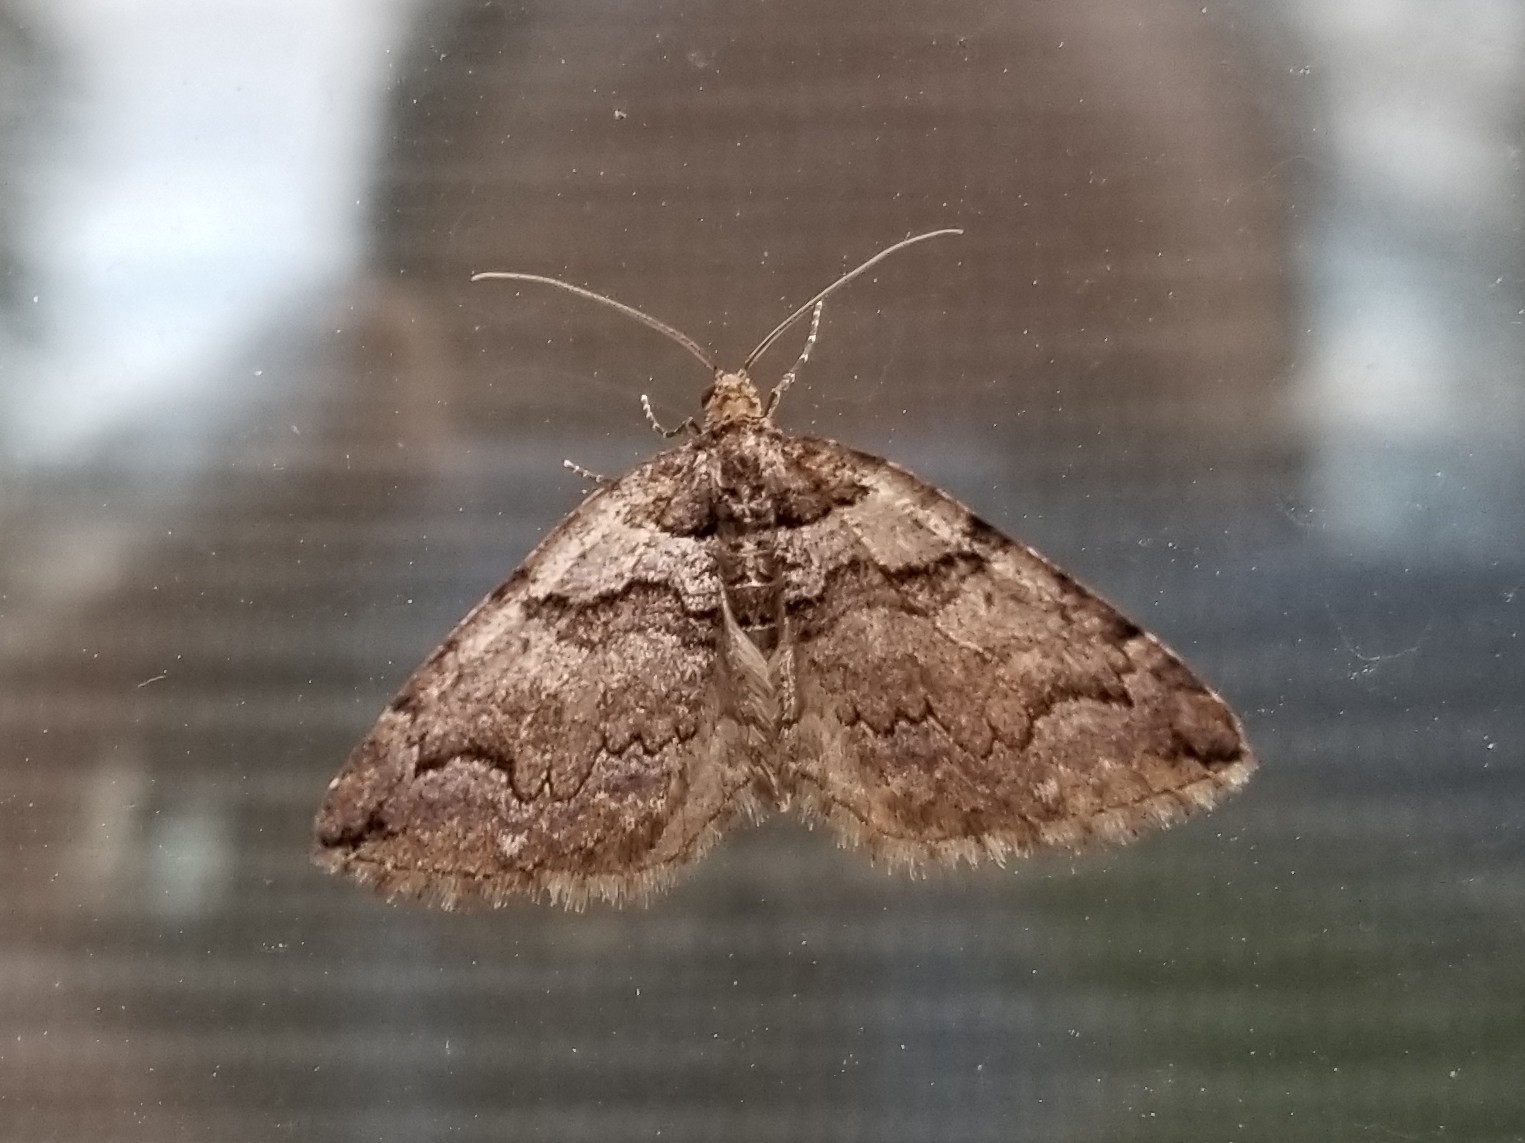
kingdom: Animalia
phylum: Arthropoda
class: Insecta
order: Lepidoptera
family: Geometridae
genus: Anticlea
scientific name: Anticlea vasiliata
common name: Variable carpet
